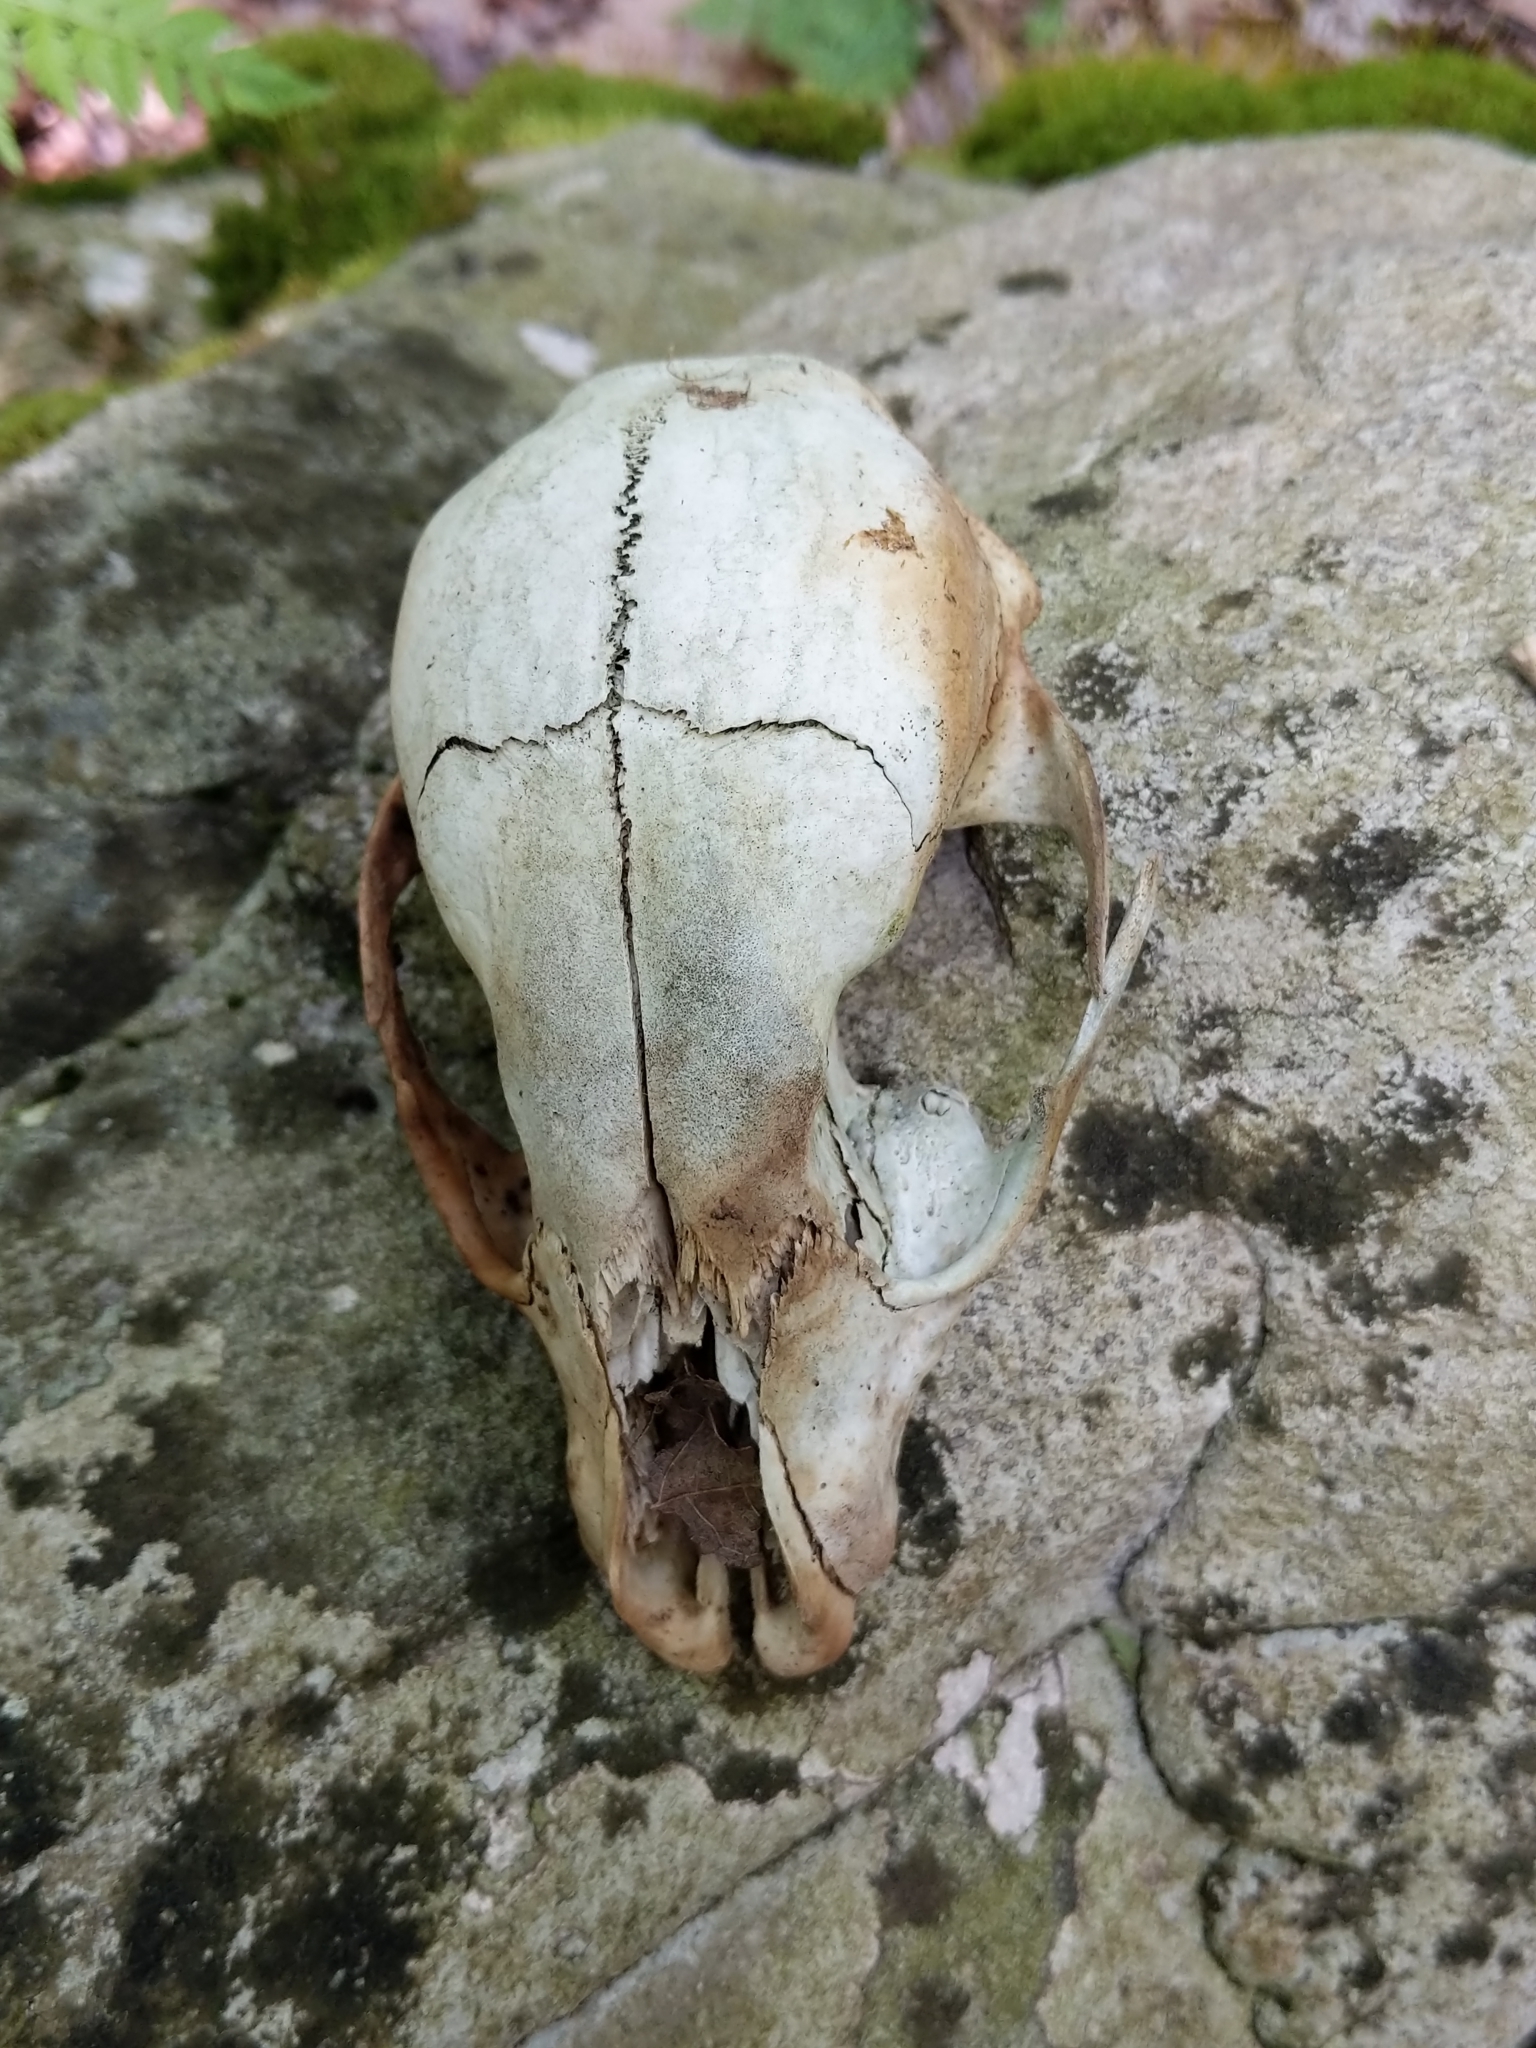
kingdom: Animalia
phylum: Chordata
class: Mammalia
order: Carnivora
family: Procyonidae
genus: Procyon
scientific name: Procyon lotor
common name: Raccoon
